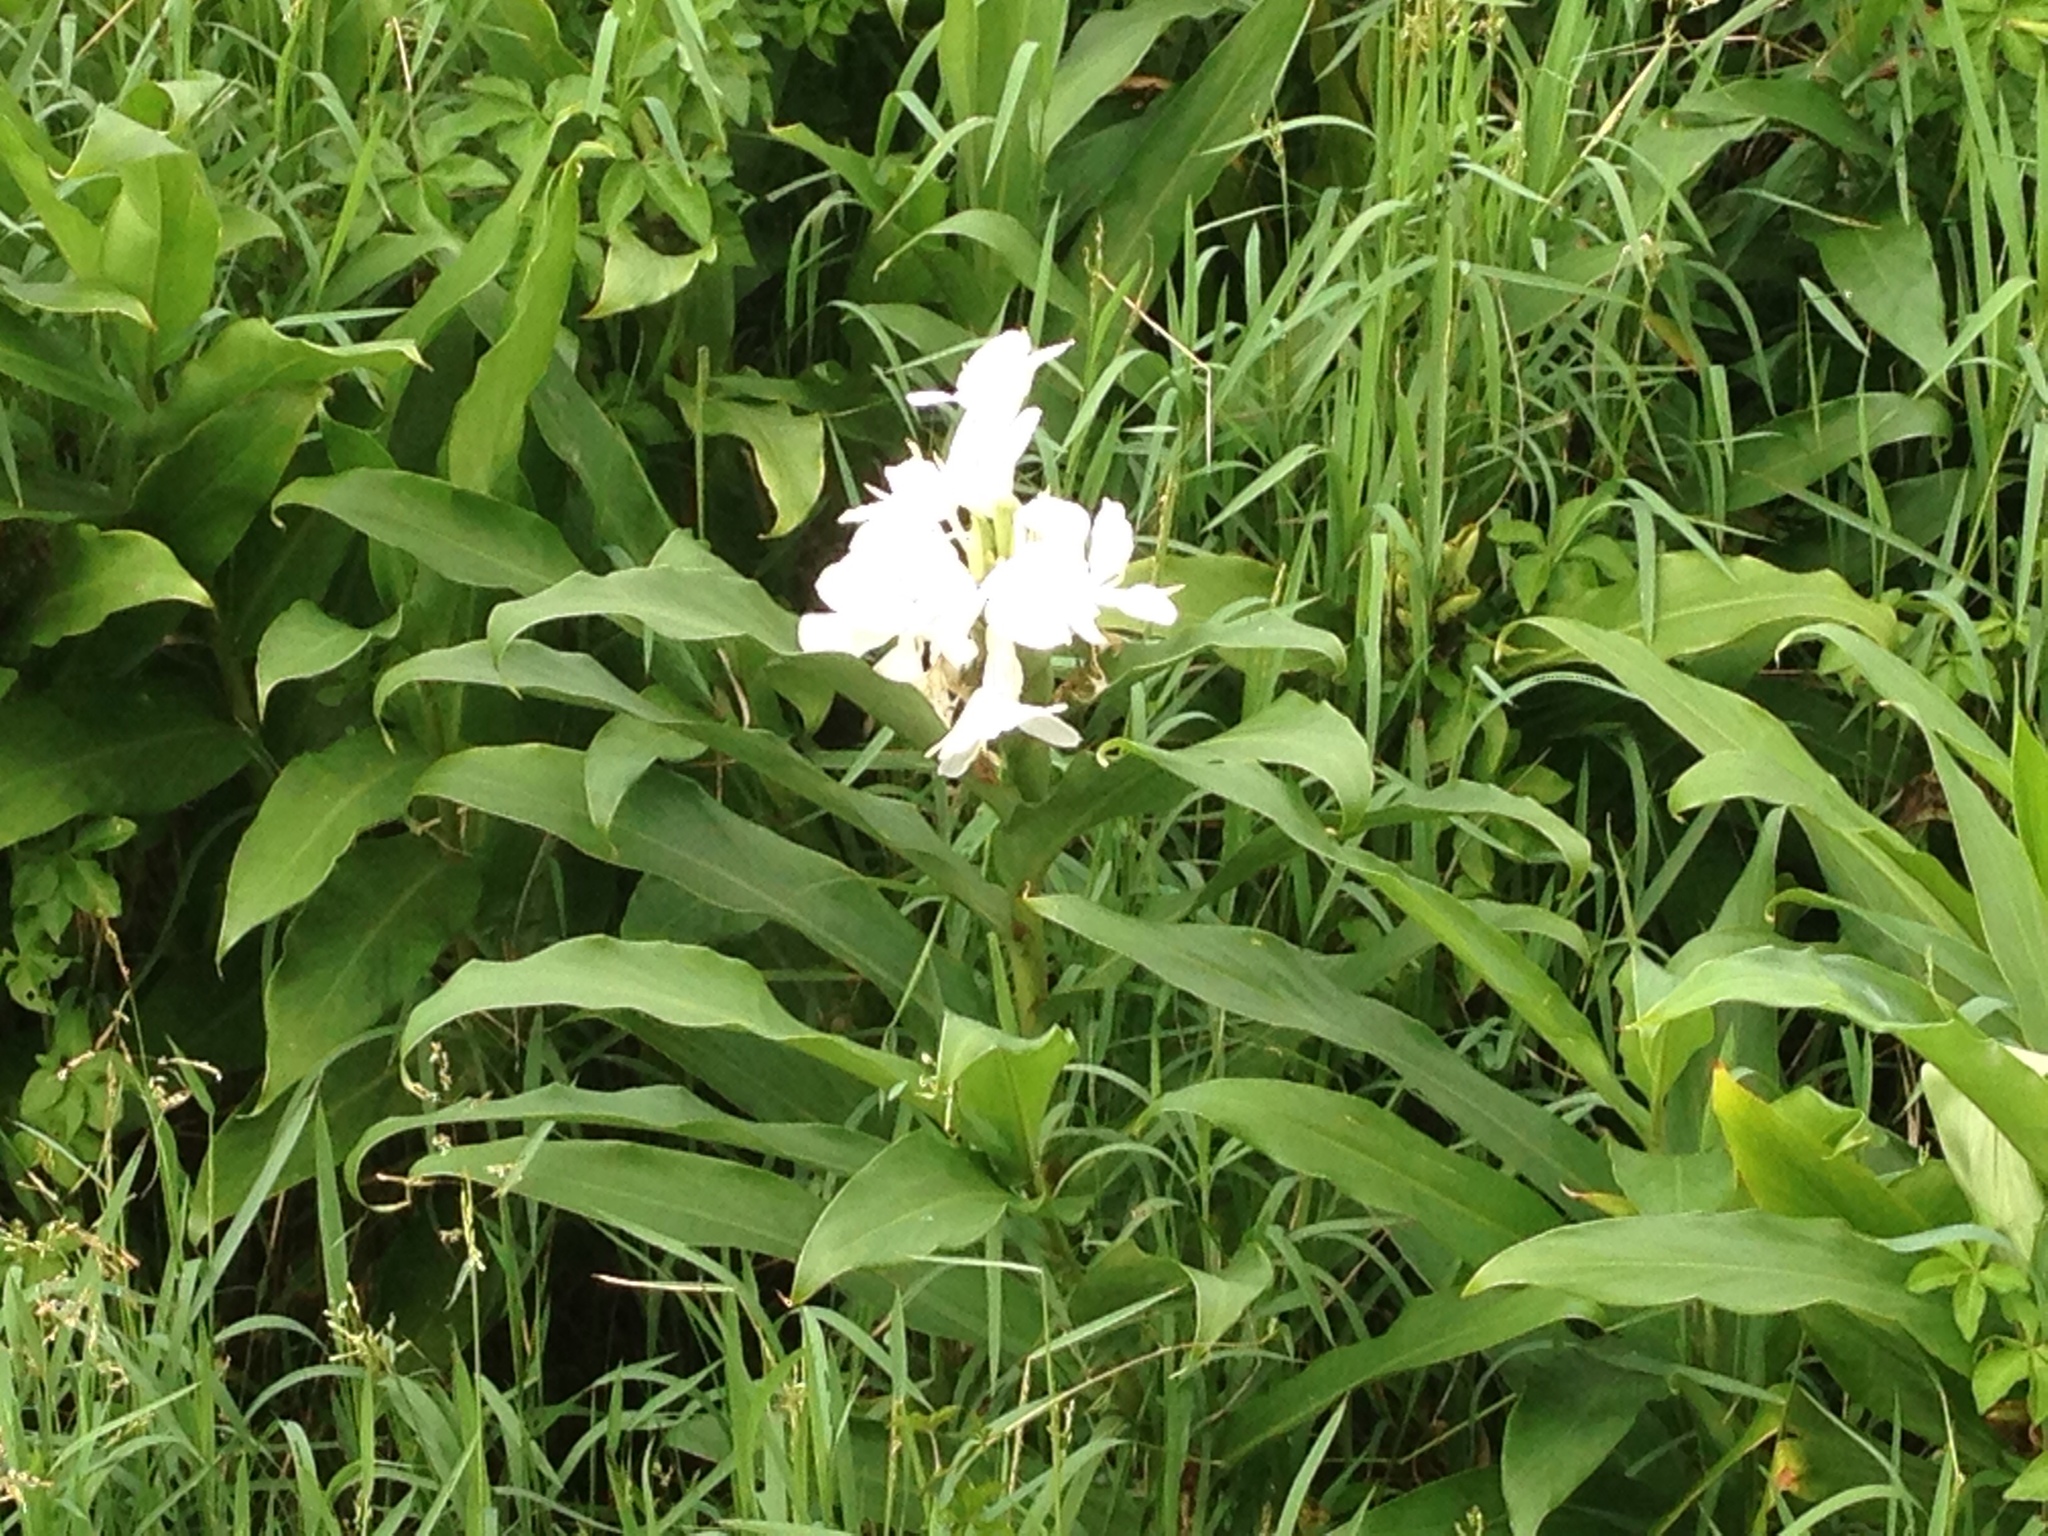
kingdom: Plantae
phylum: Tracheophyta
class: Liliopsida
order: Zingiberales
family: Zingiberaceae
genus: Hedychium
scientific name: Hedychium coronarium
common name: White garland-lily
